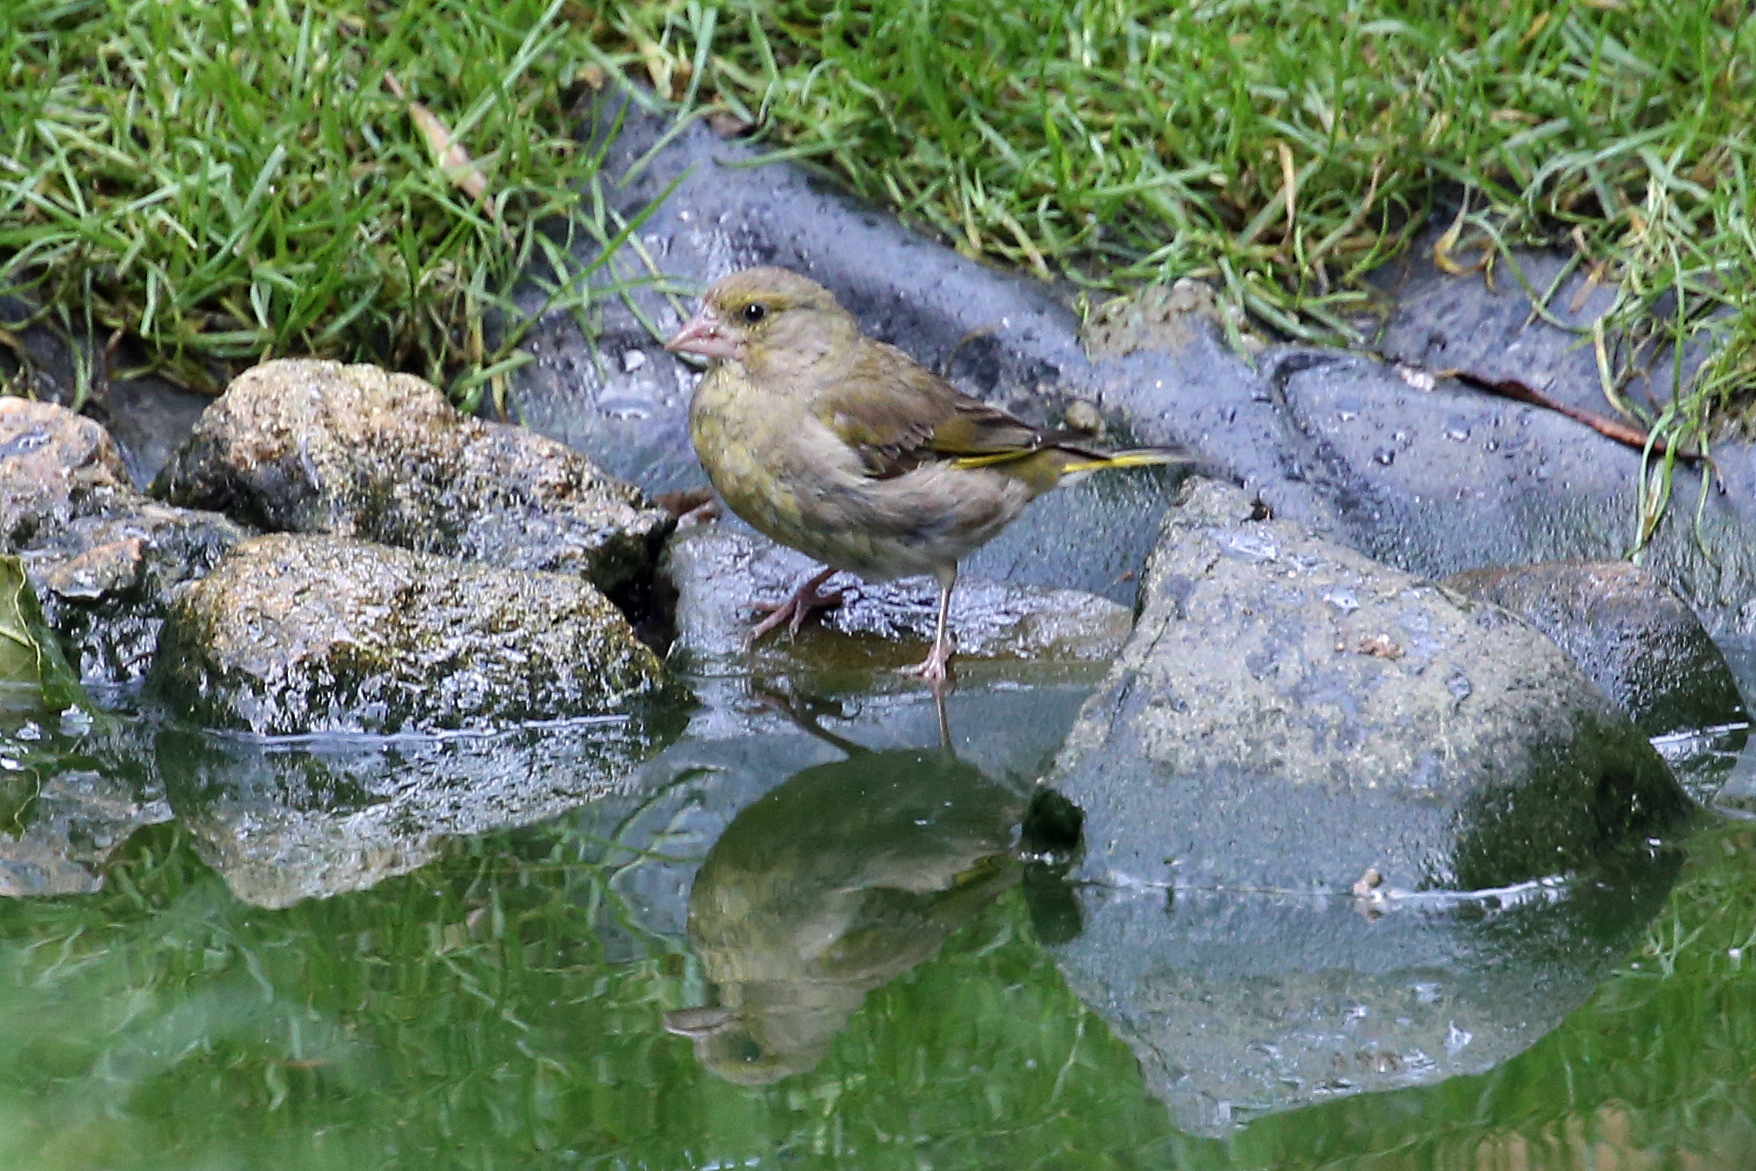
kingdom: Plantae
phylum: Tracheophyta
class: Liliopsida
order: Poales
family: Poaceae
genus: Chloris
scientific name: Chloris chloris
